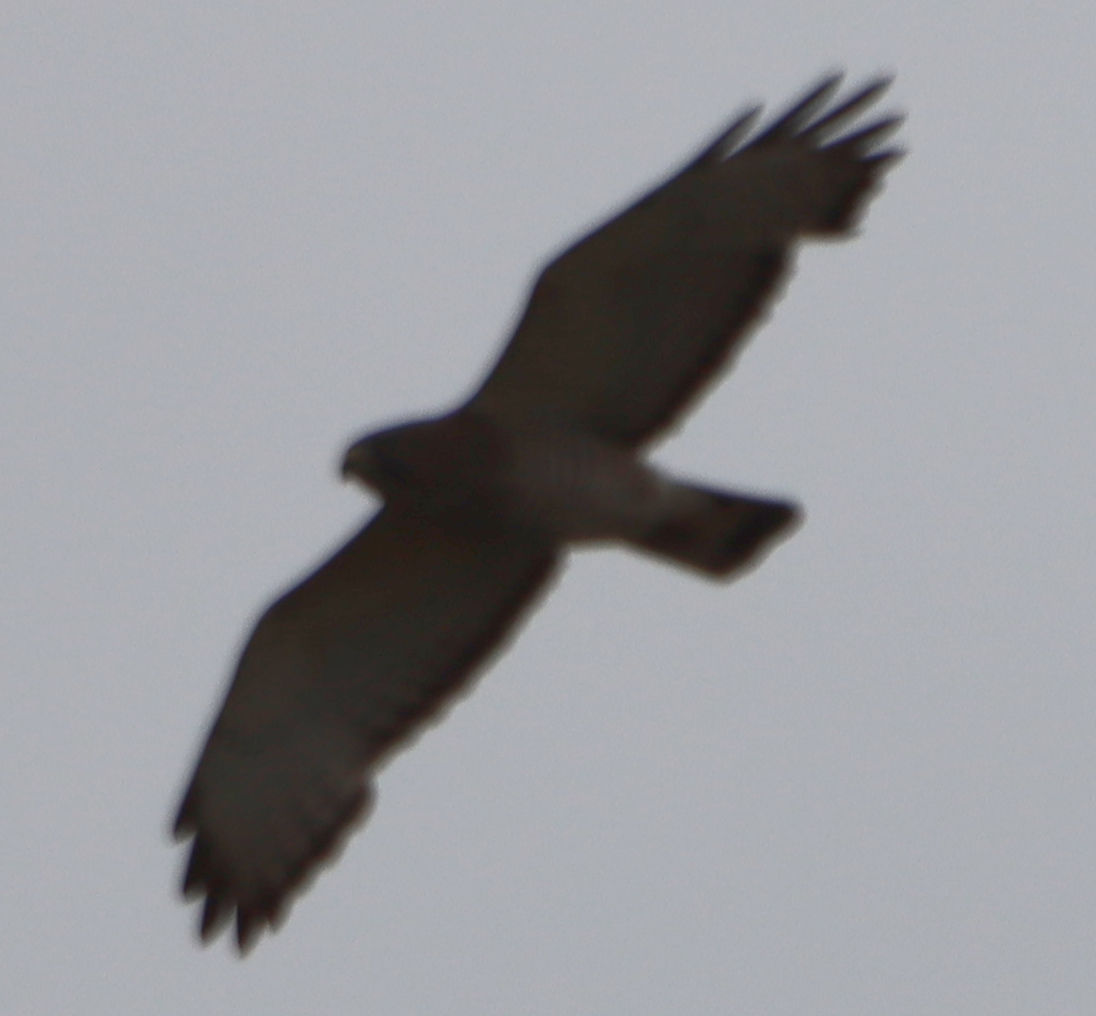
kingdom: Animalia
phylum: Chordata
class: Aves
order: Accipitriformes
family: Accipitridae
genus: Buteo
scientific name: Buteo platypterus
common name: Broad-winged hawk
